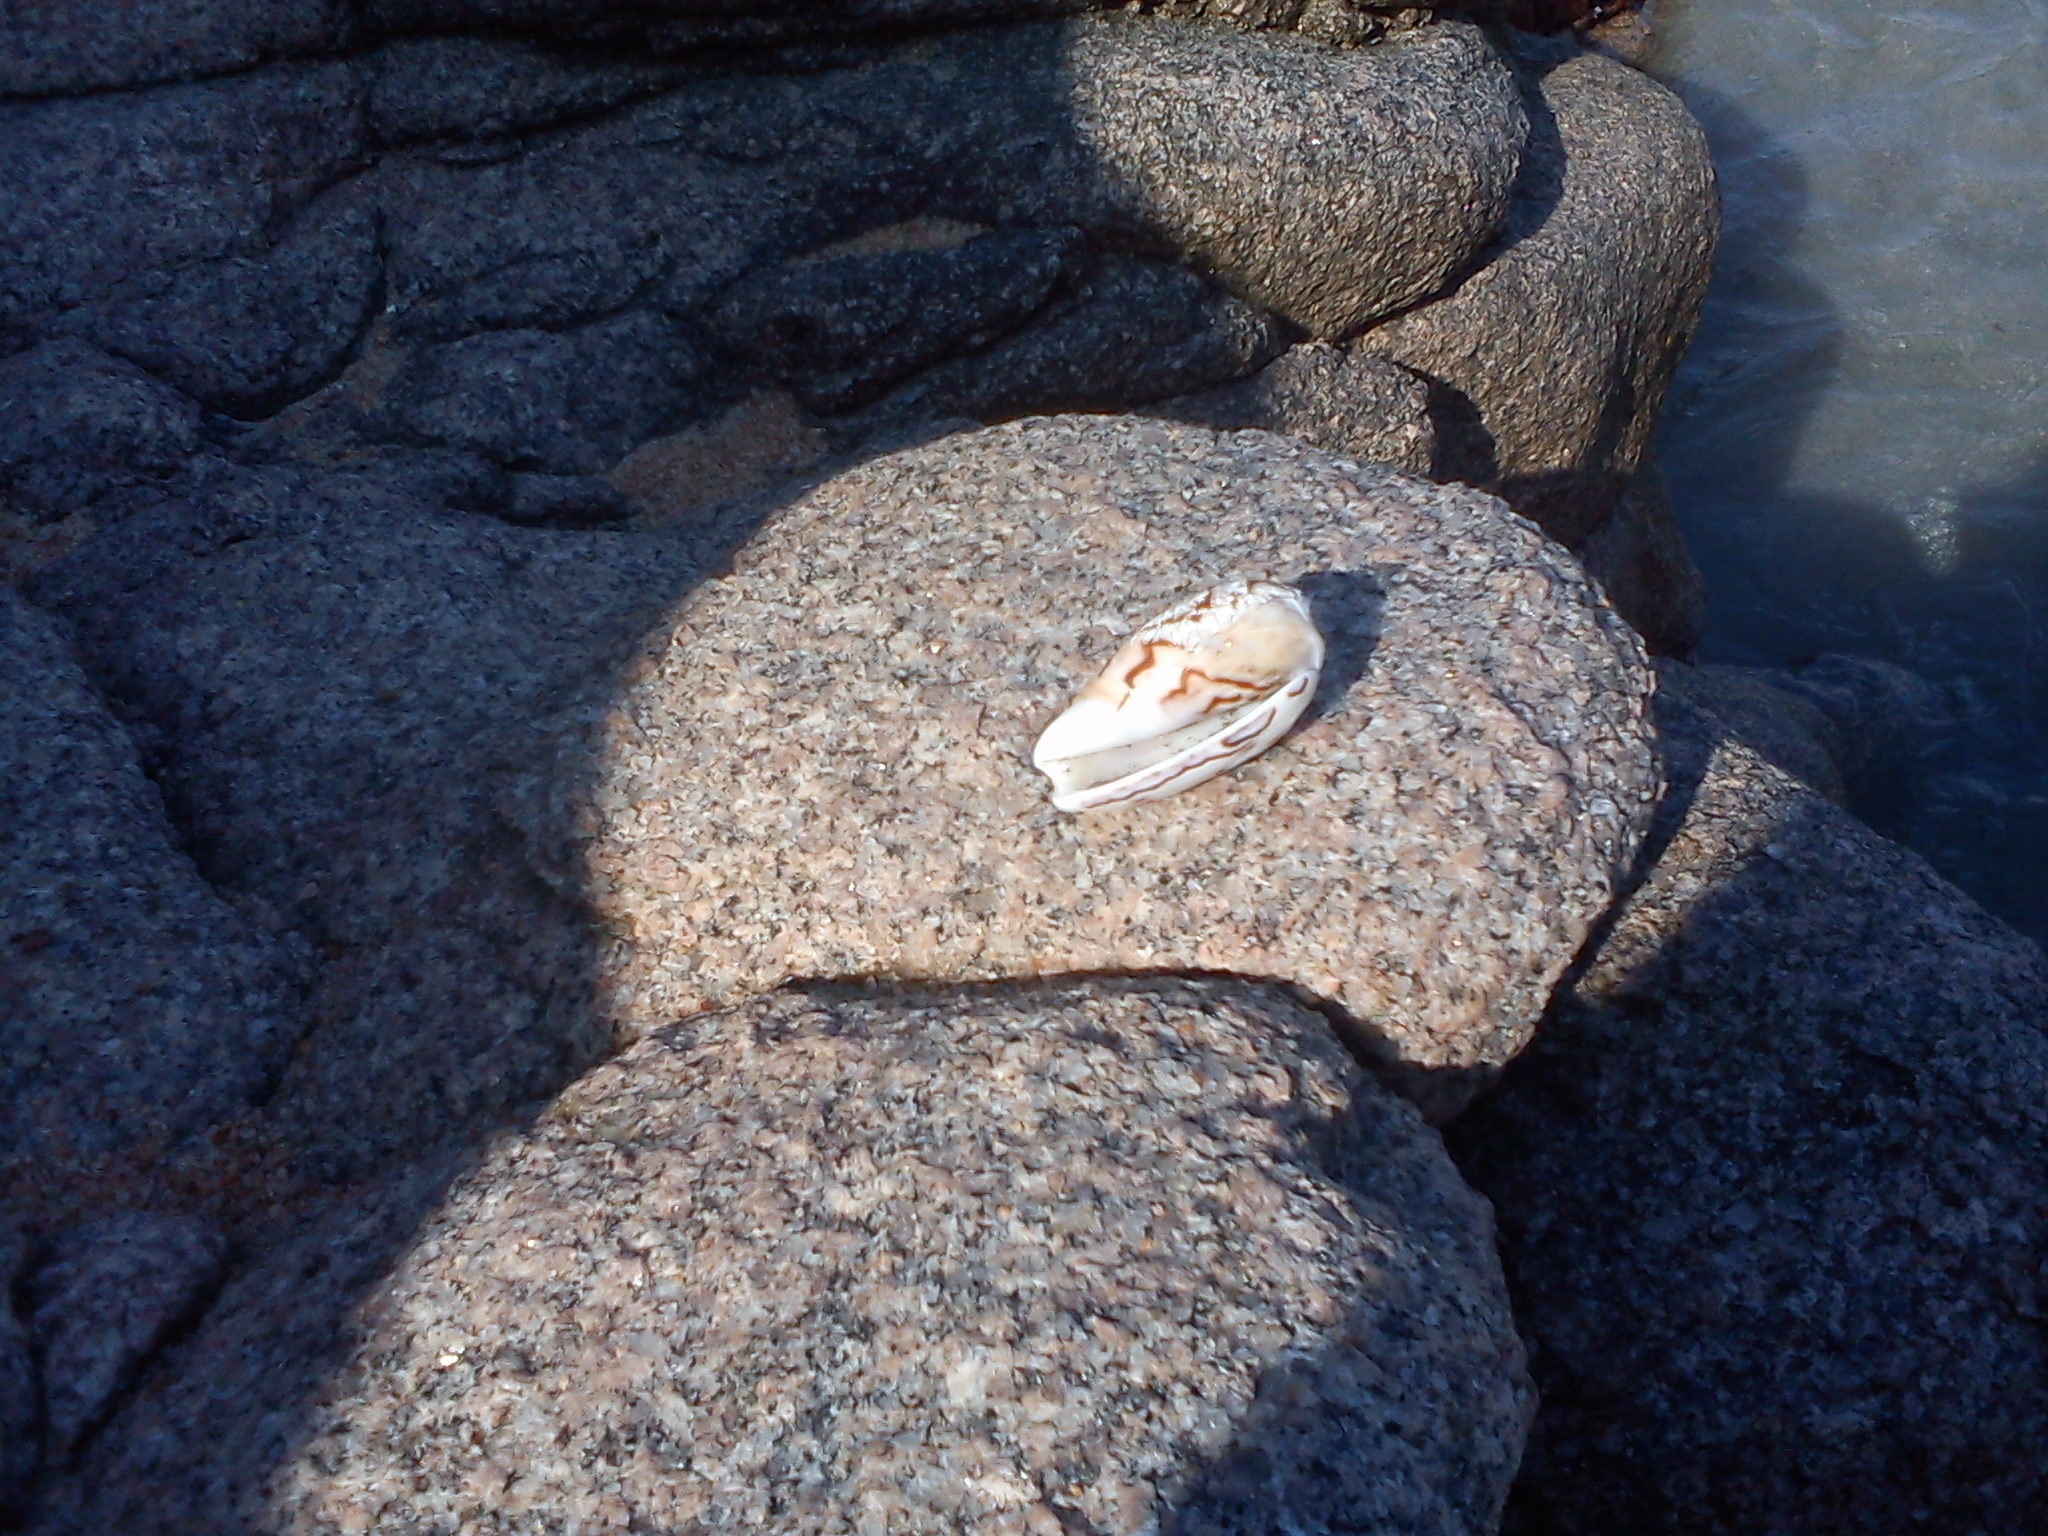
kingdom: Animalia
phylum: Mollusca
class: Gastropoda
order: Neogastropoda
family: Olividae
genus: Felicioliva
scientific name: Felicioliva peruviana
